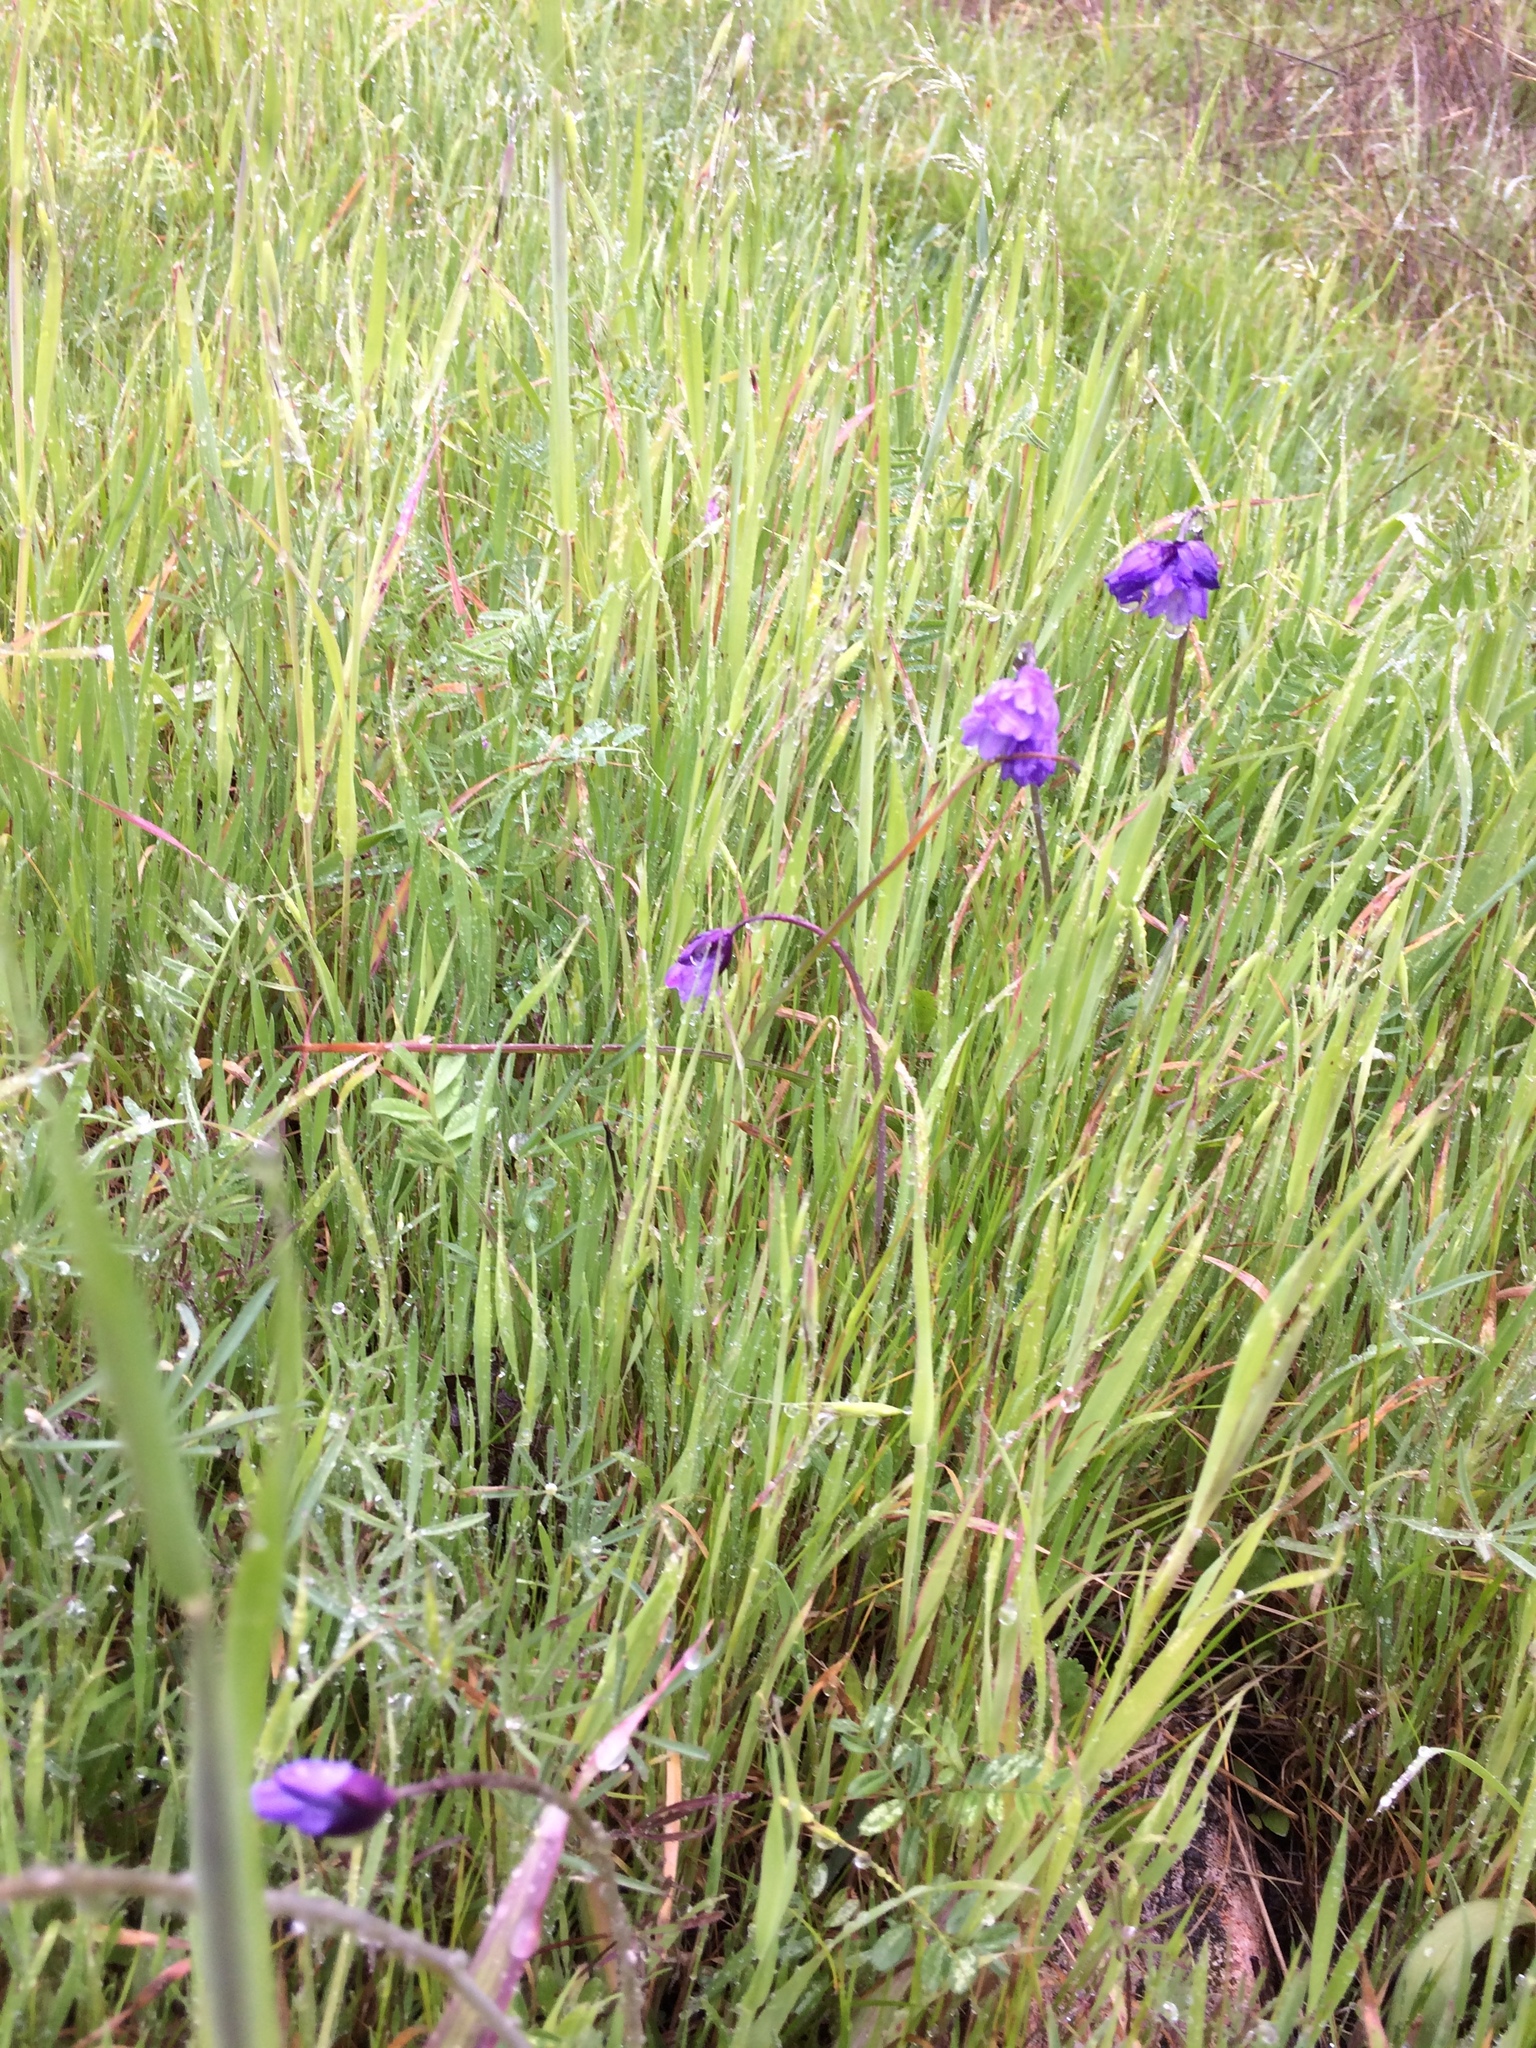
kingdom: Plantae
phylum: Tracheophyta
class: Liliopsida
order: Asparagales
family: Asparagaceae
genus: Dipterostemon
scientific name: Dipterostemon capitatus
